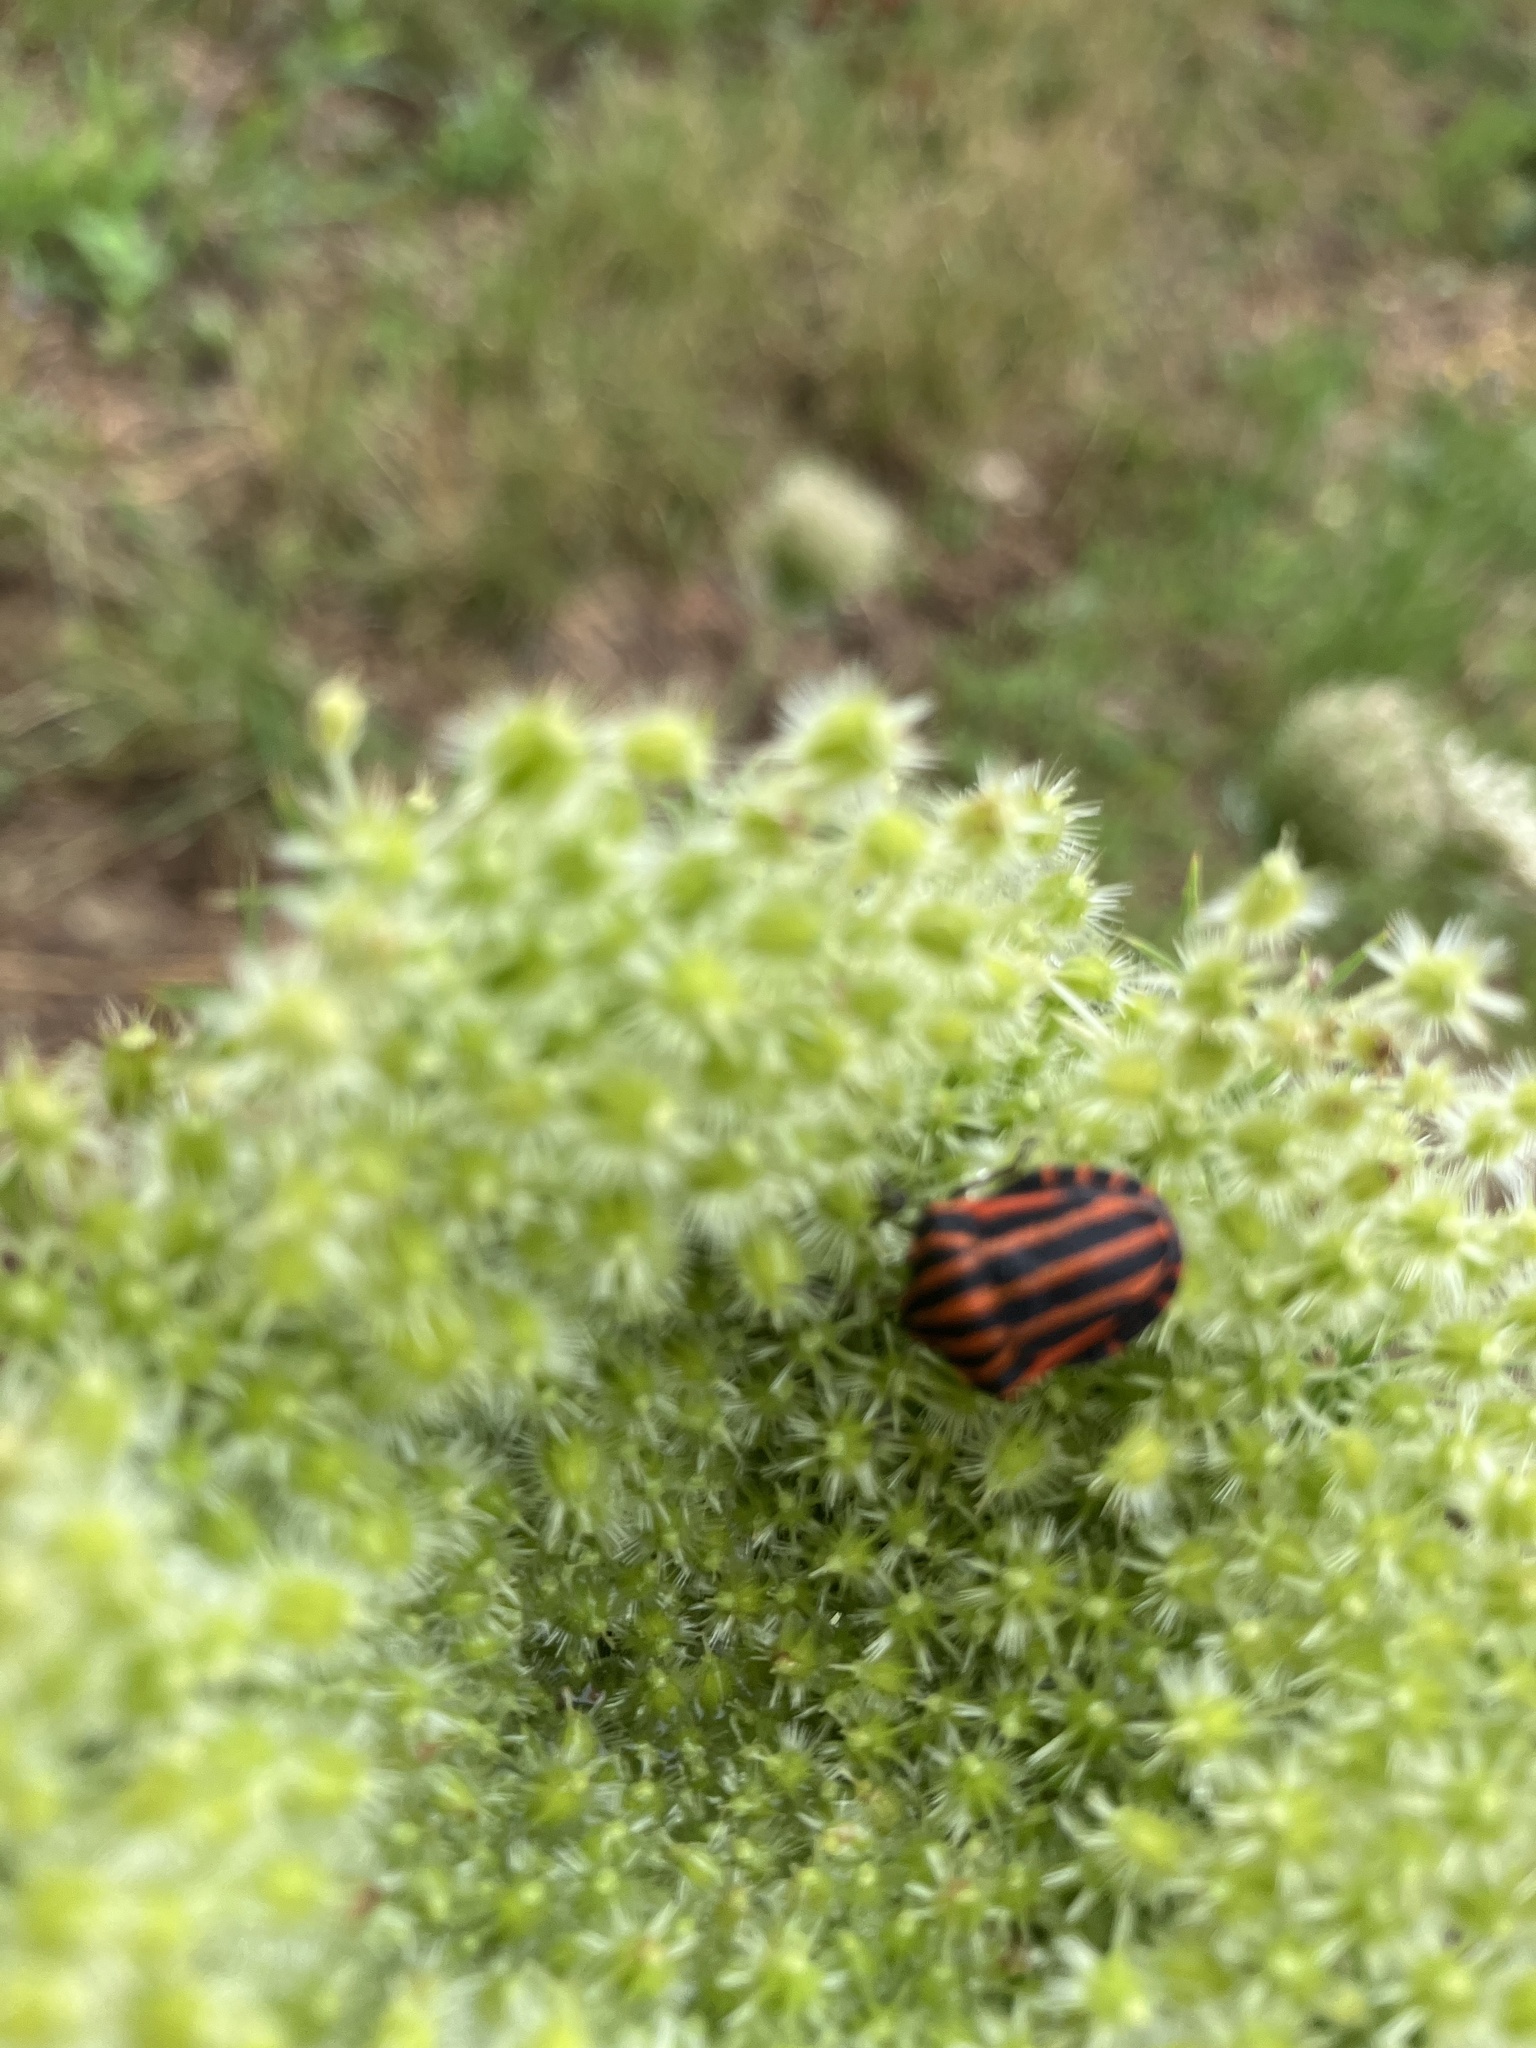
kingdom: Animalia
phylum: Arthropoda
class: Insecta
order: Hemiptera
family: Pentatomidae
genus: Graphosoma
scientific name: Graphosoma italicum
